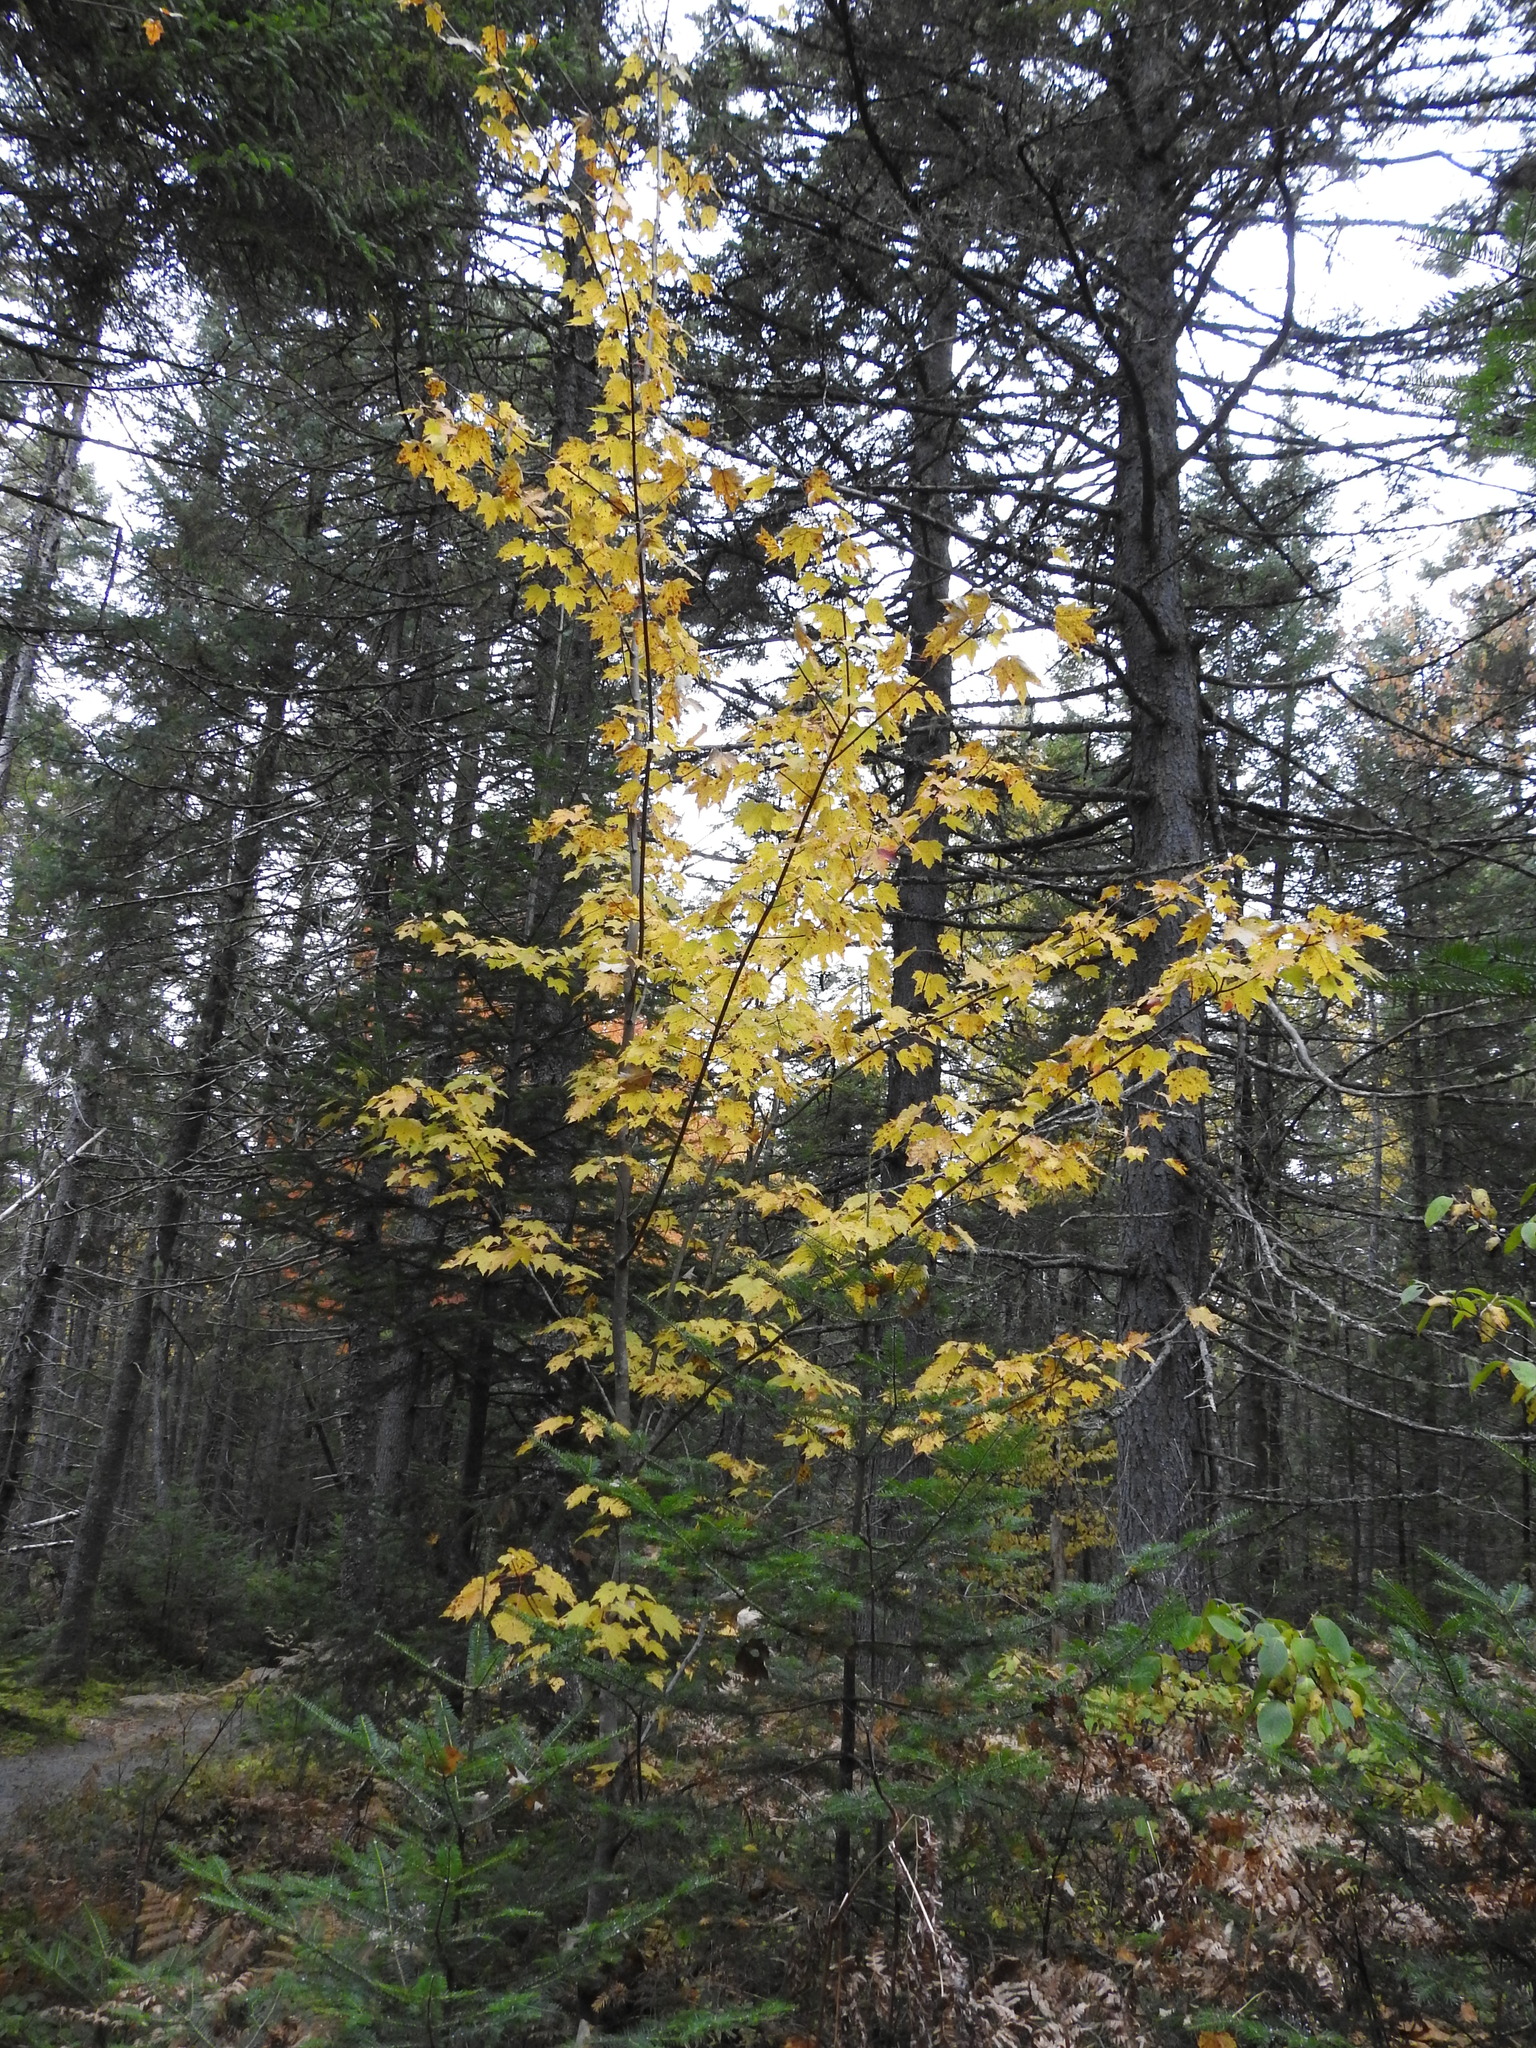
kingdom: Plantae
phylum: Tracheophyta
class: Magnoliopsida
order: Sapindales
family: Sapindaceae
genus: Acer
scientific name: Acer rubrum
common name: Red maple
